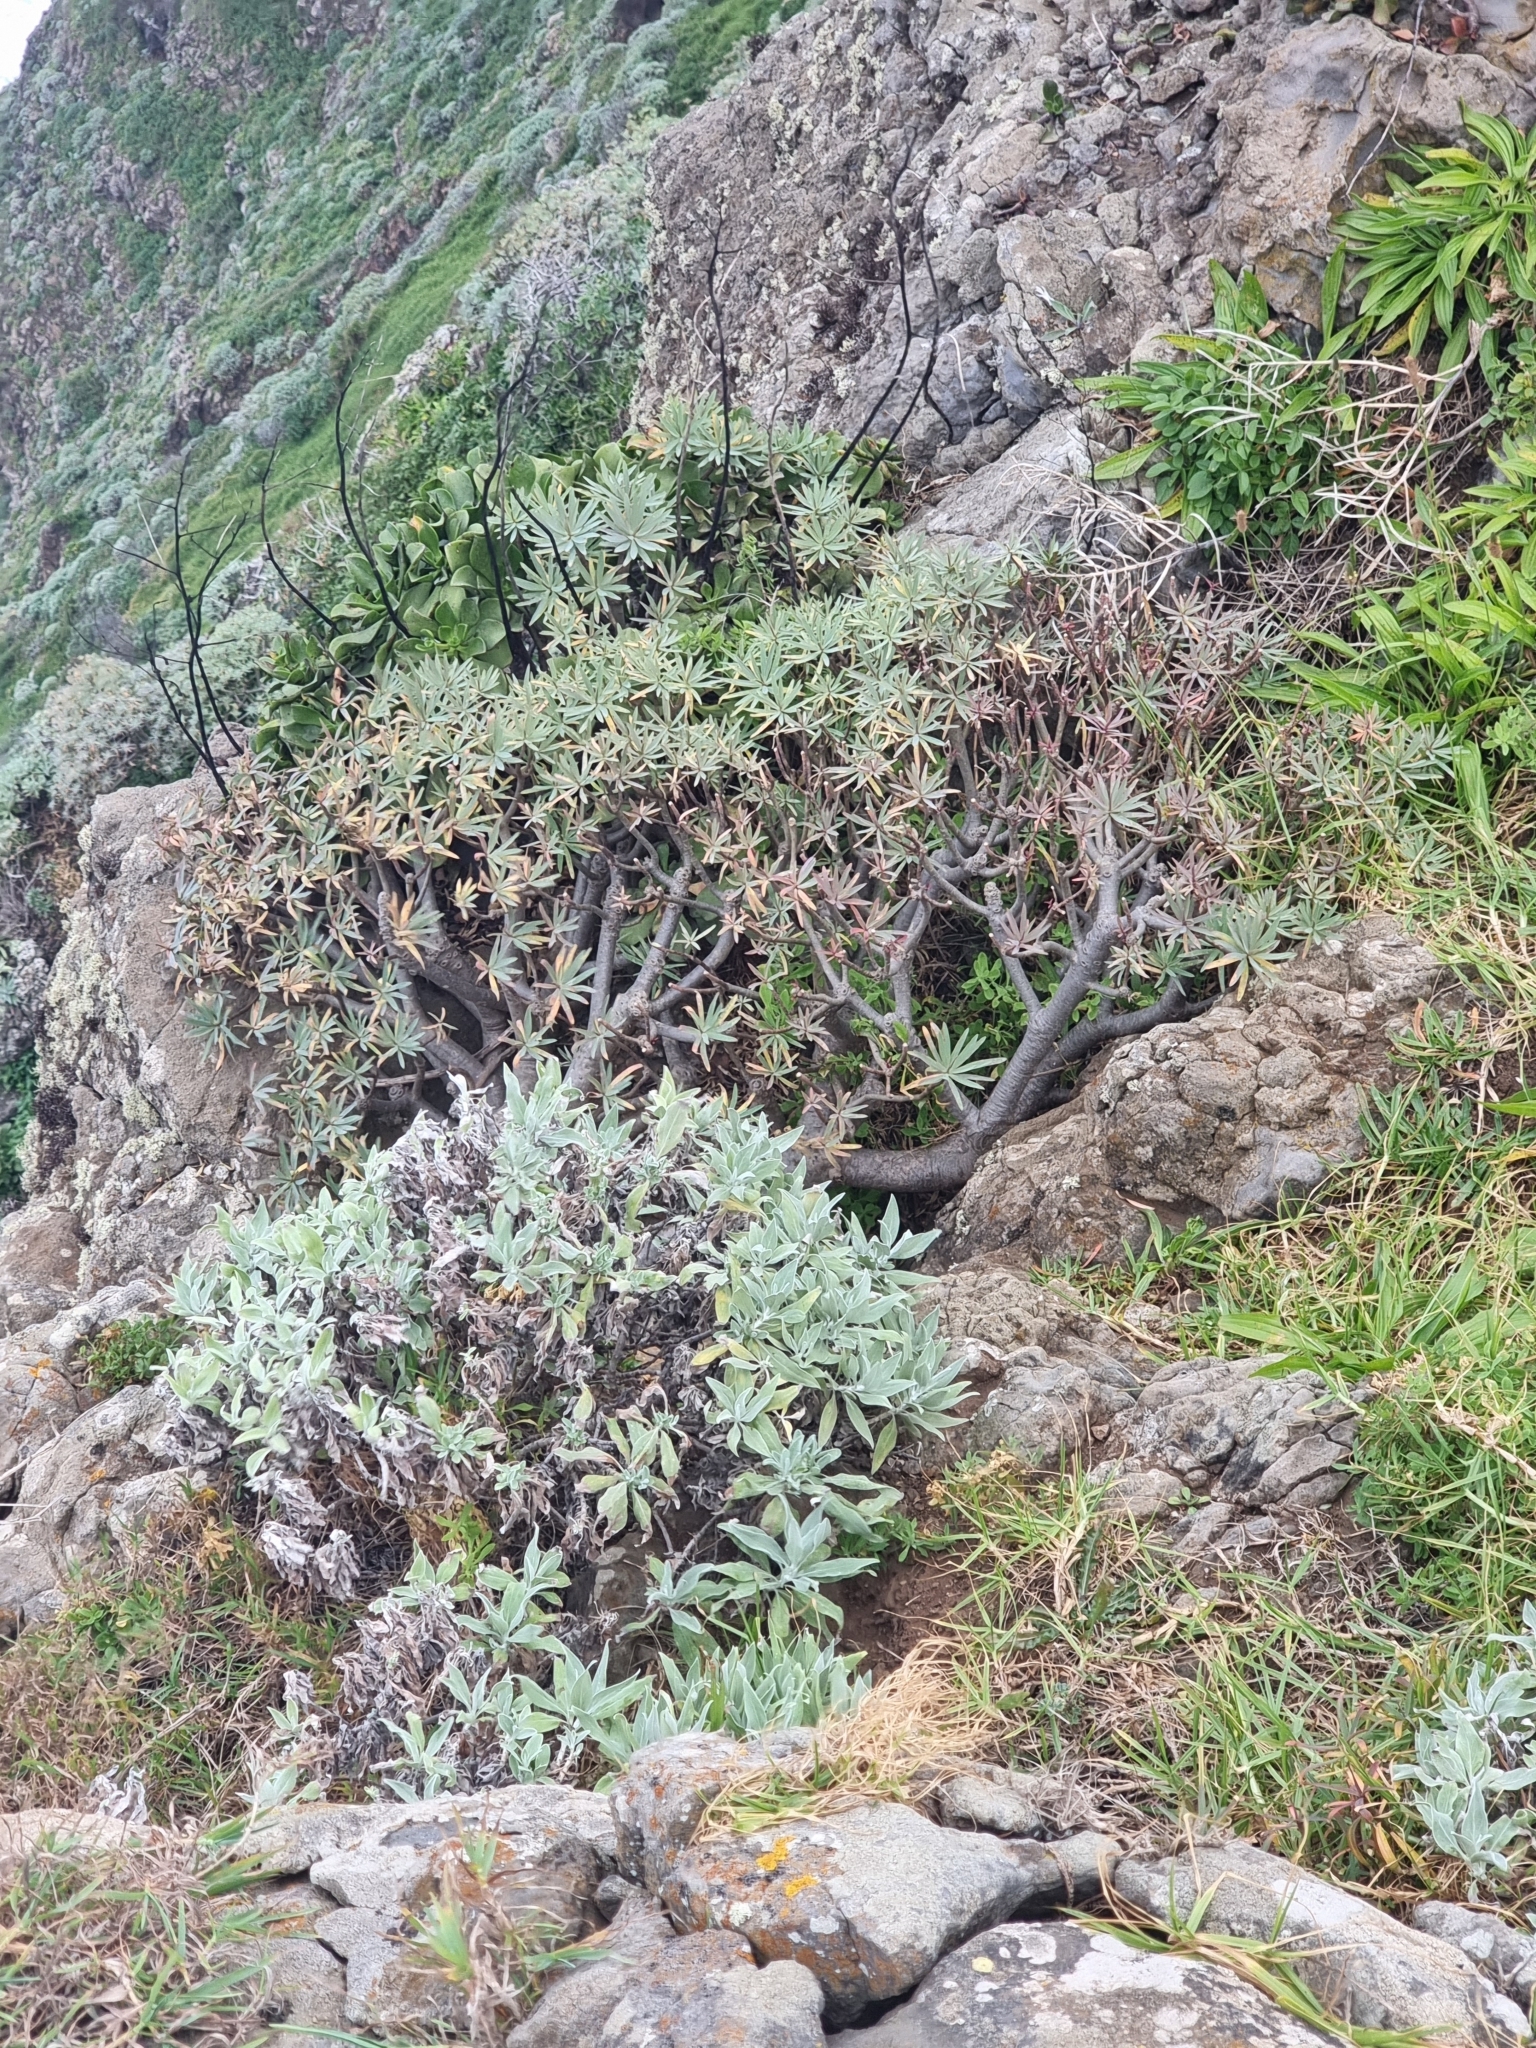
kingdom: Plantae
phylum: Tracheophyta
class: Magnoliopsida
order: Malpighiales
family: Euphorbiaceae
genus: Euphorbia
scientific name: Euphorbia piscatoria
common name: Fish-stunning spurge
